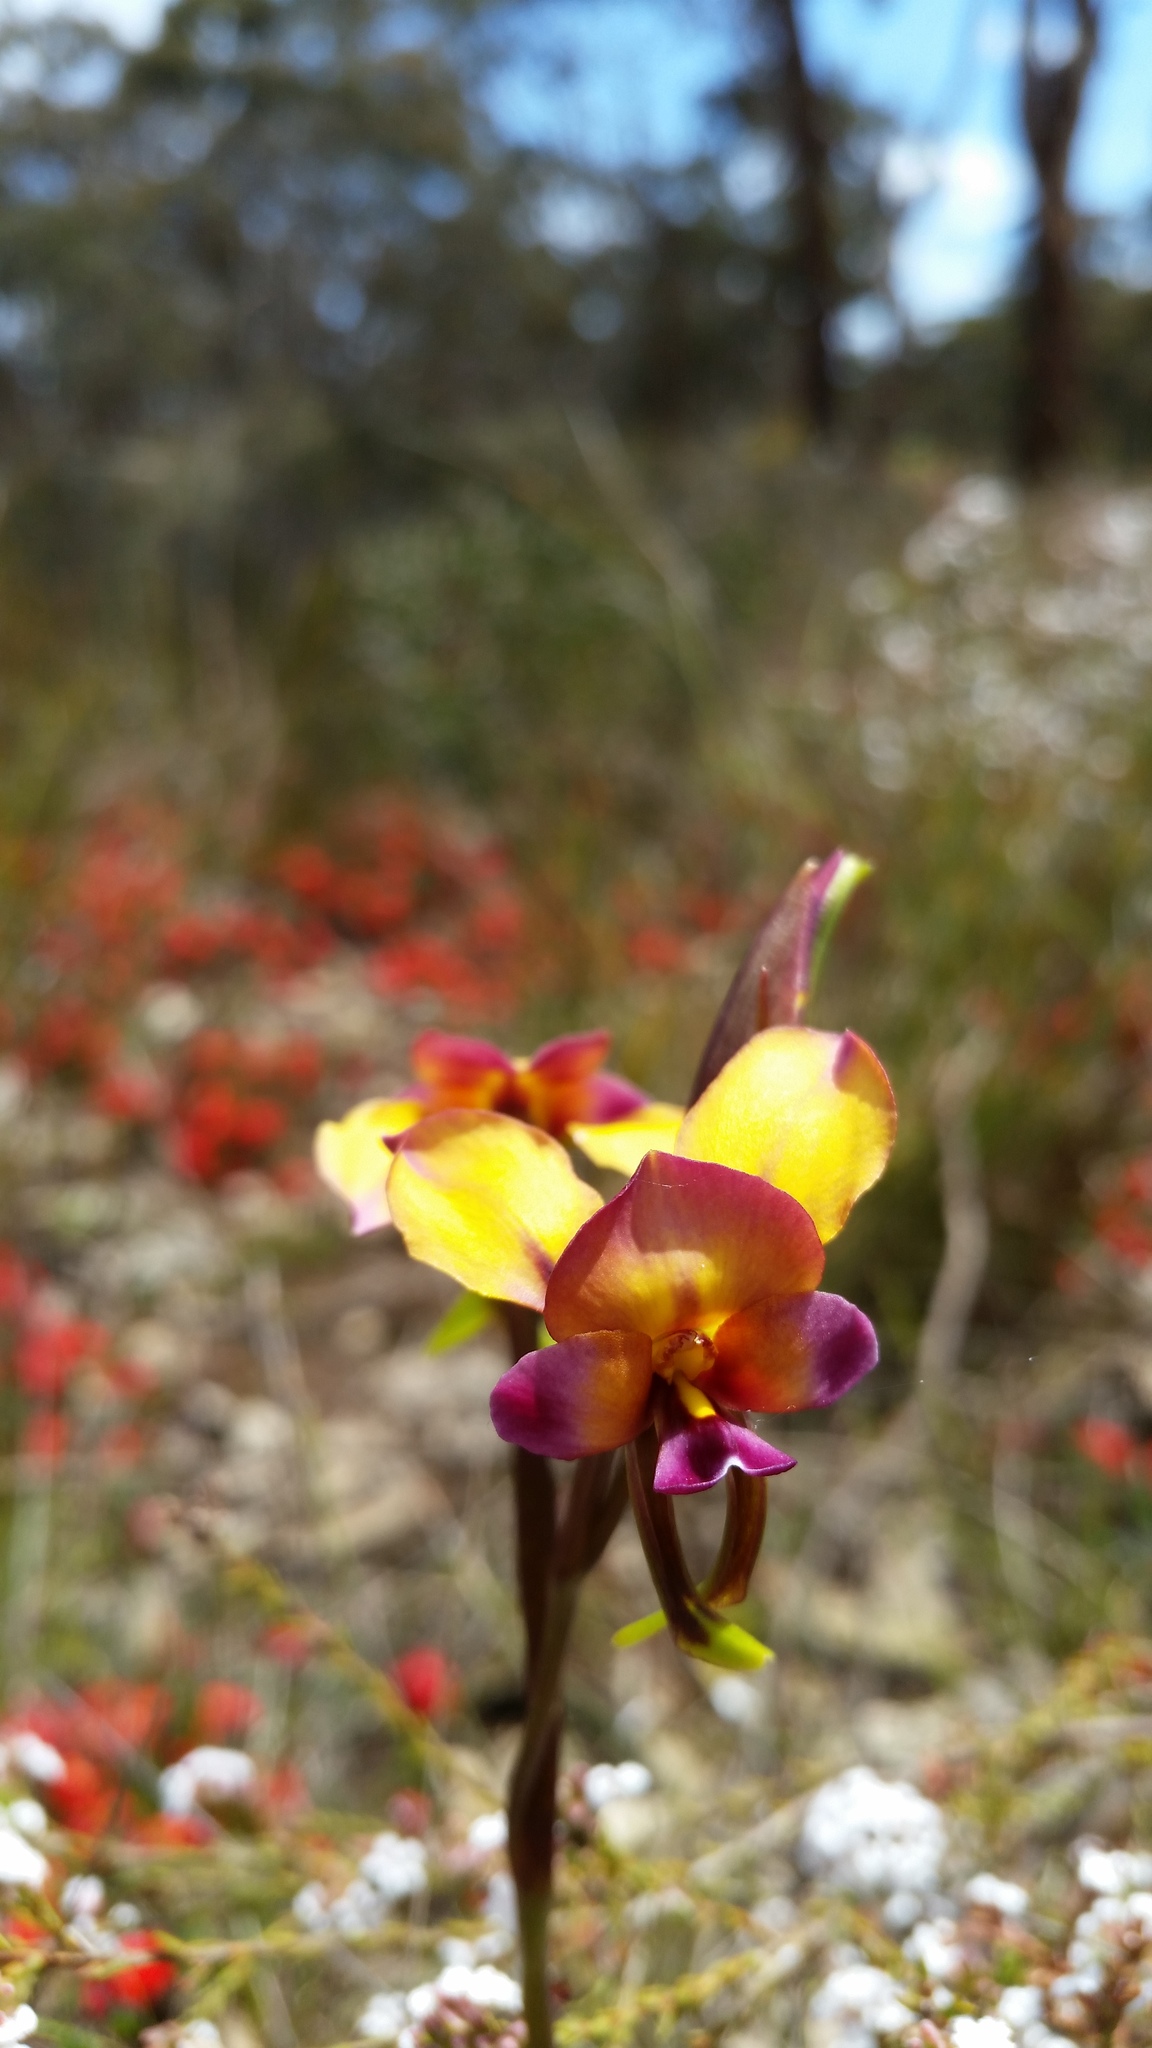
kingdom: Plantae
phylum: Tracheophyta
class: Liliopsida
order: Asparagales
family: Orchidaceae
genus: Diuris
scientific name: Diuris longifolia
